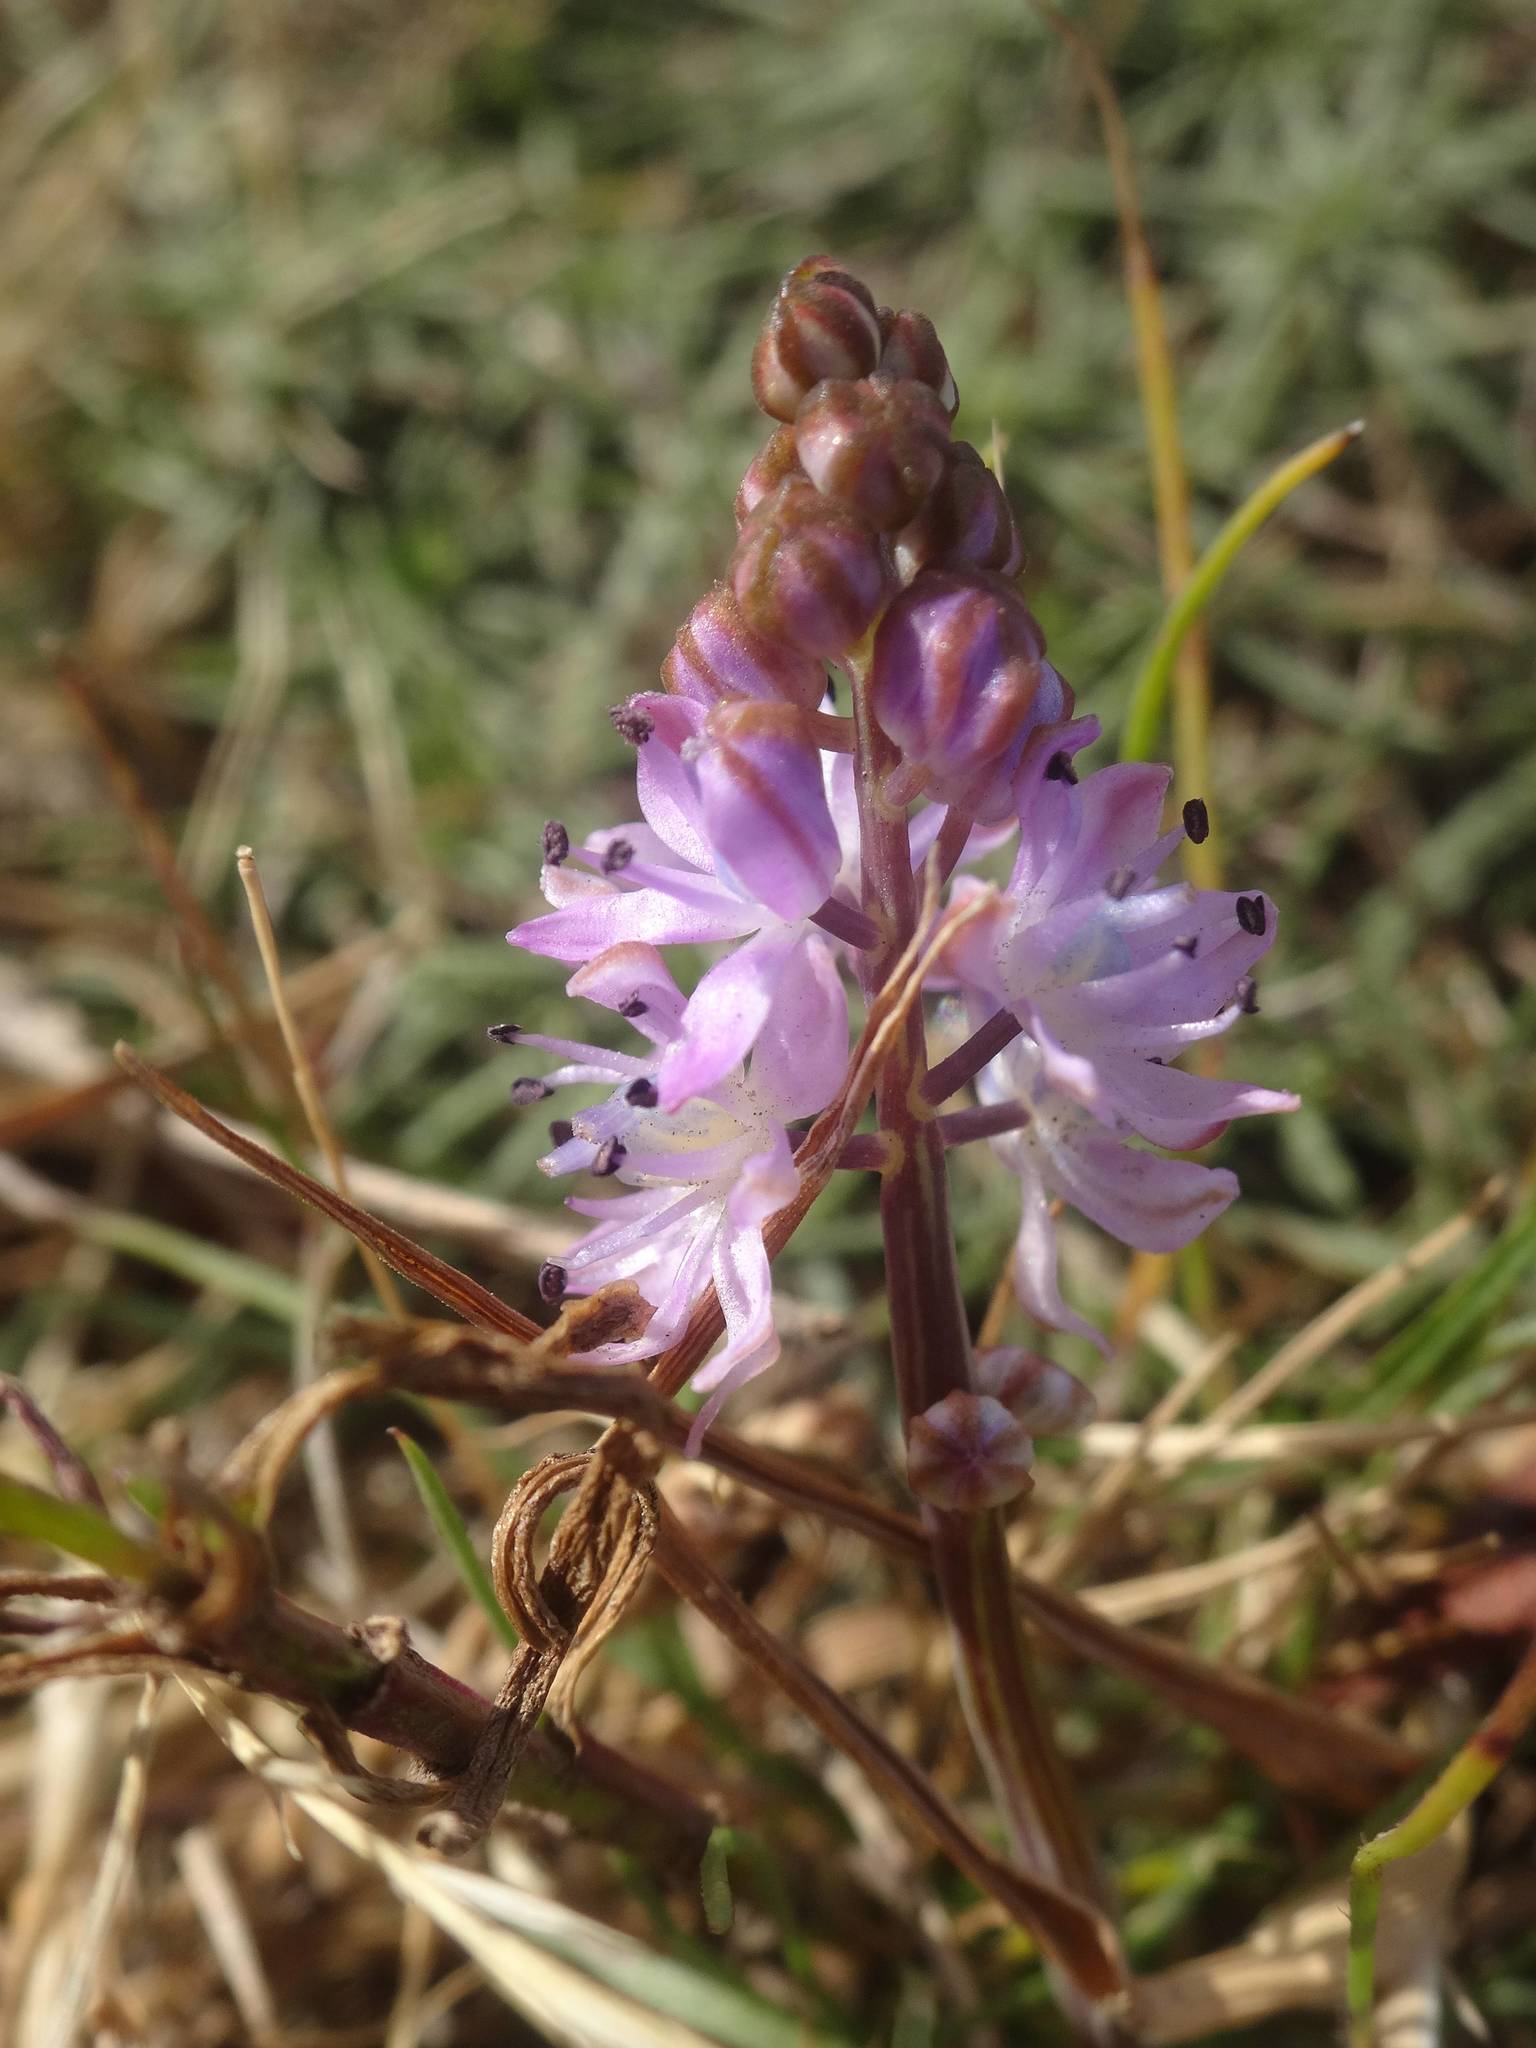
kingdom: Plantae
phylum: Tracheophyta
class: Liliopsida
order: Asparagales
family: Asparagaceae
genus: Prospero
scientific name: Prospero autumnale
